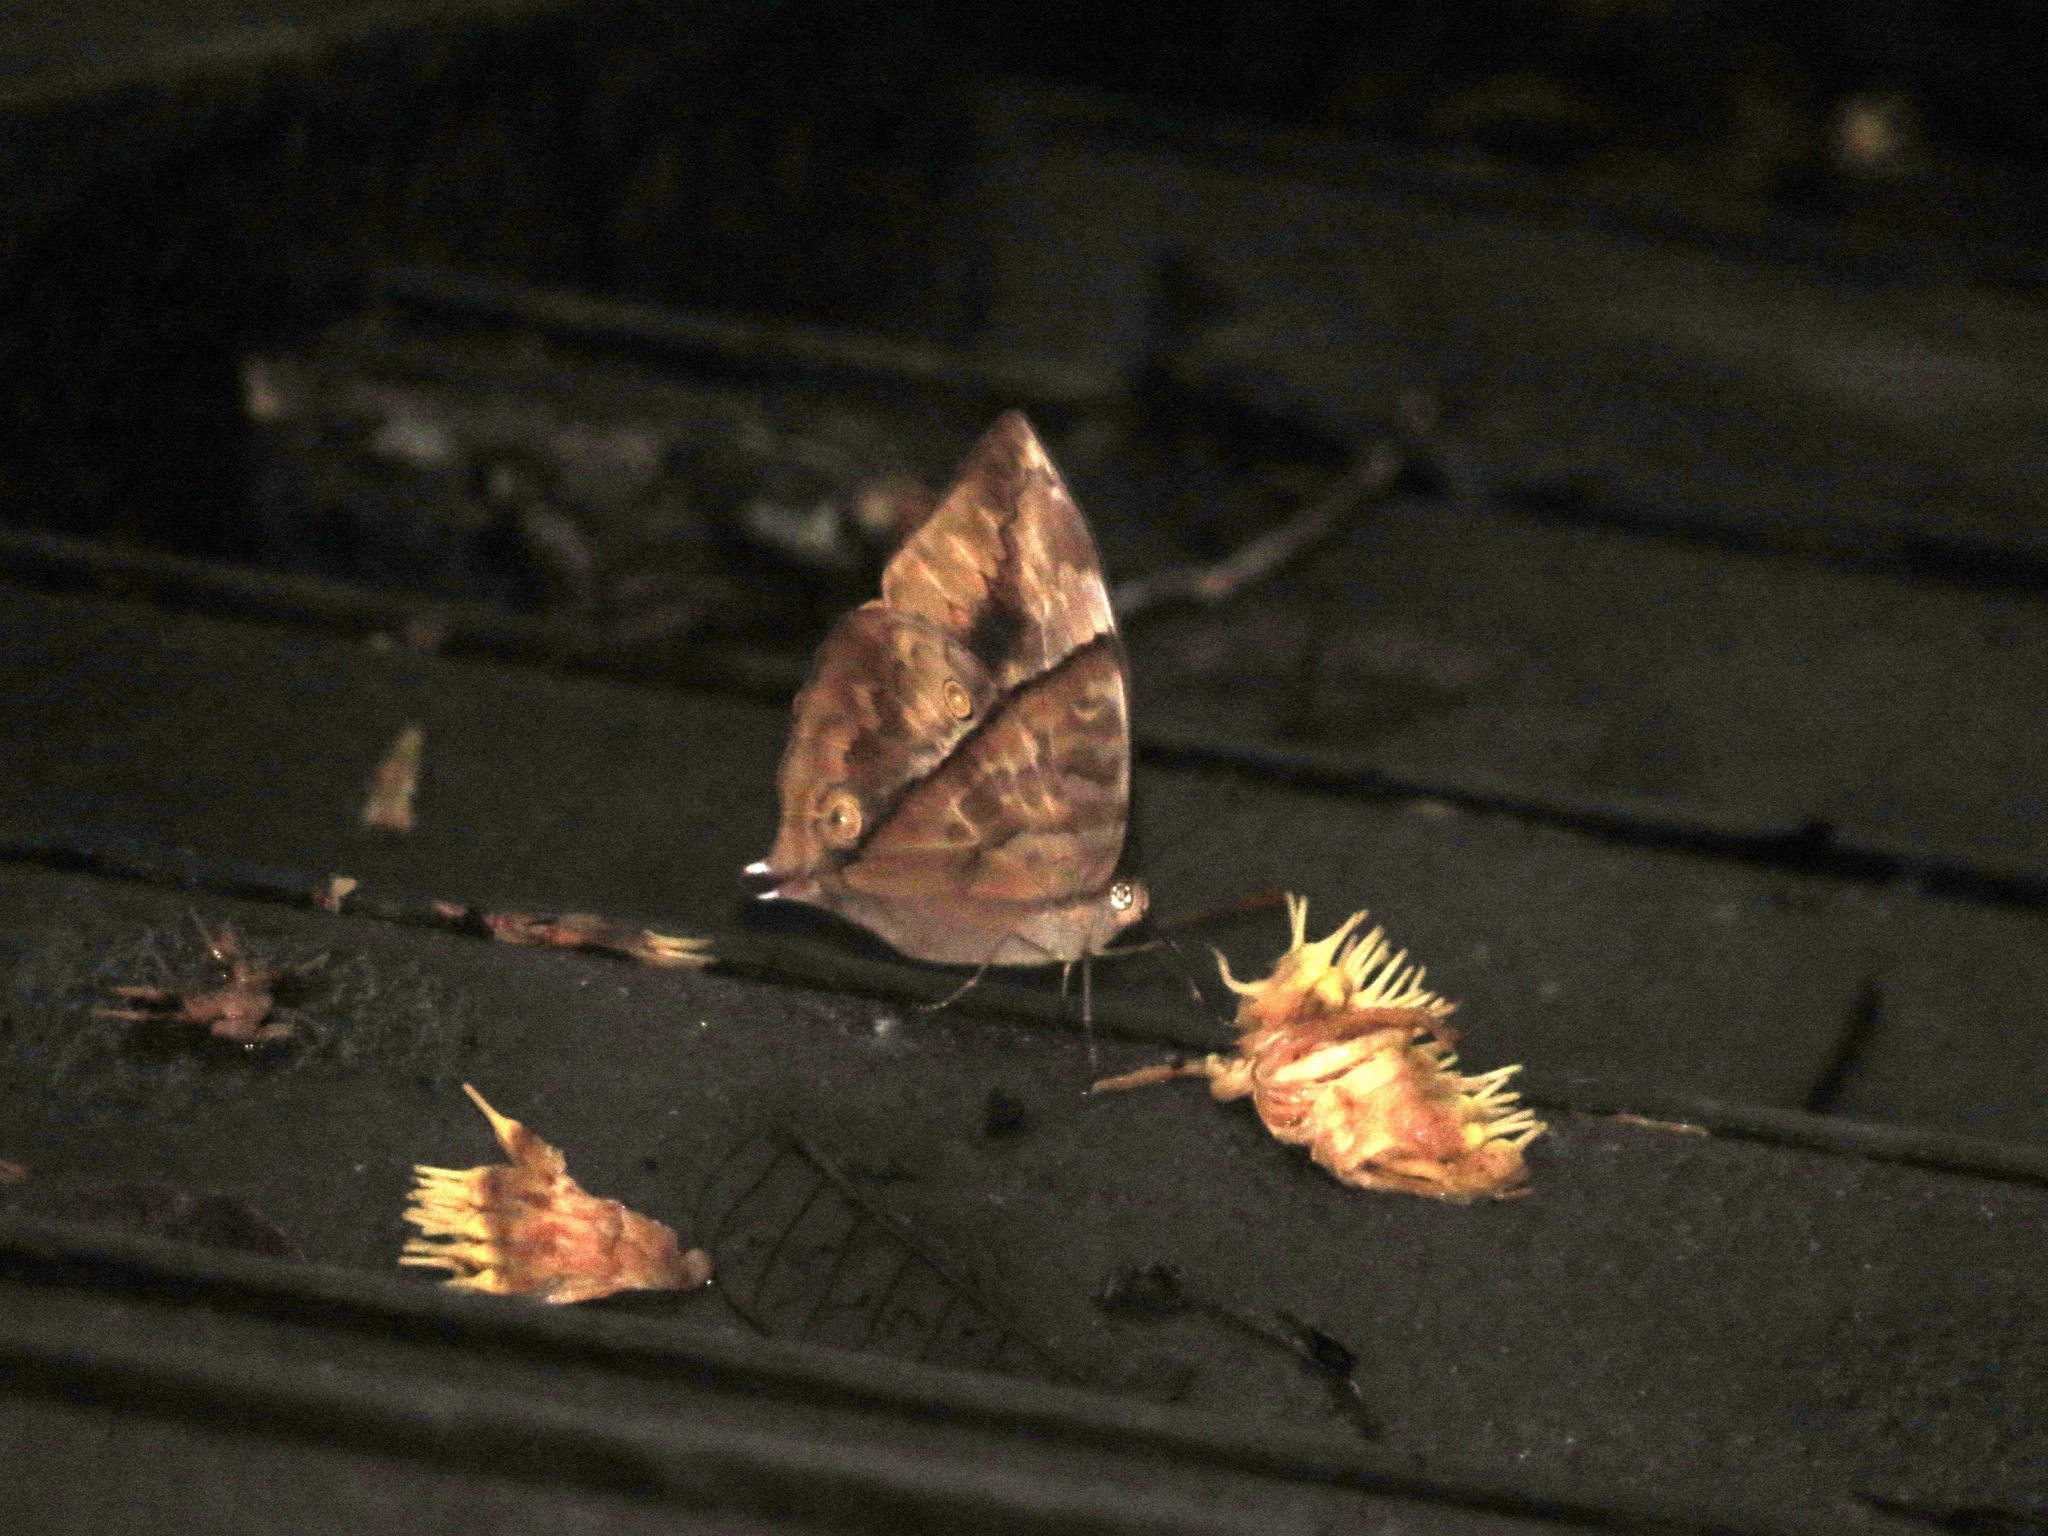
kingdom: Animalia
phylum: Arthropoda
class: Insecta
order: Lepidoptera
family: Nymphalidae
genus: Zeuxidia
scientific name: Zeuxidia amethysta
